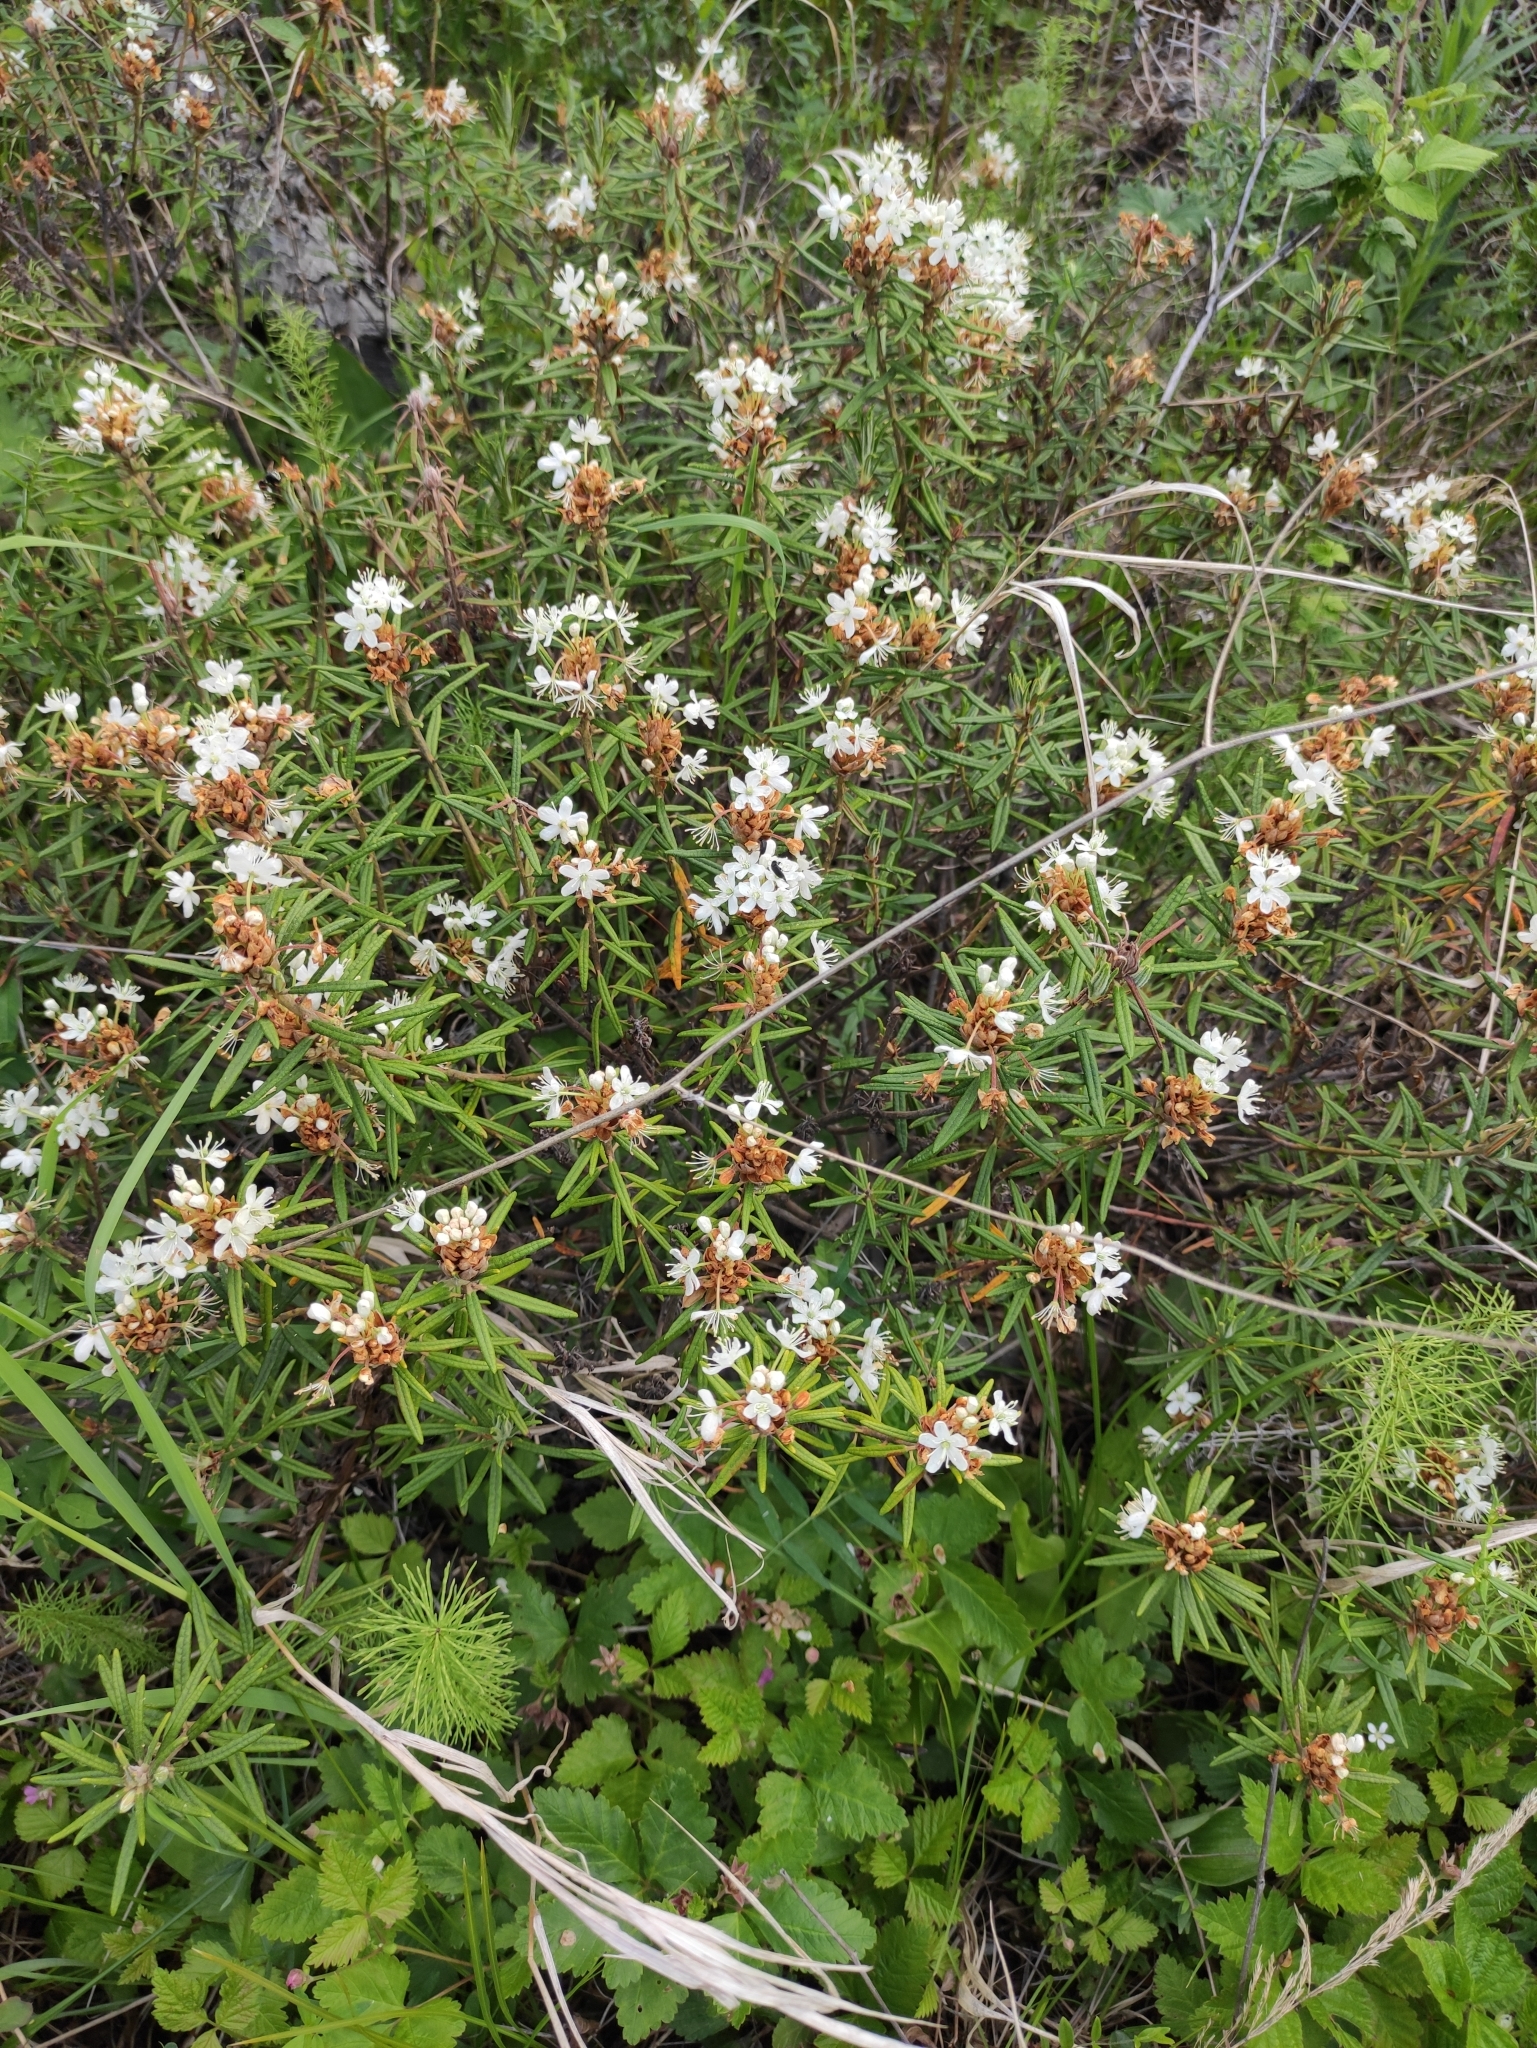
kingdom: Plantae
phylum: Tracheophyta
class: Magnoliopsida
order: Ericales
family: Ericaceae
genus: Rhododendron
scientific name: Rhododendron tomentosum
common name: Marsh labrador tea
